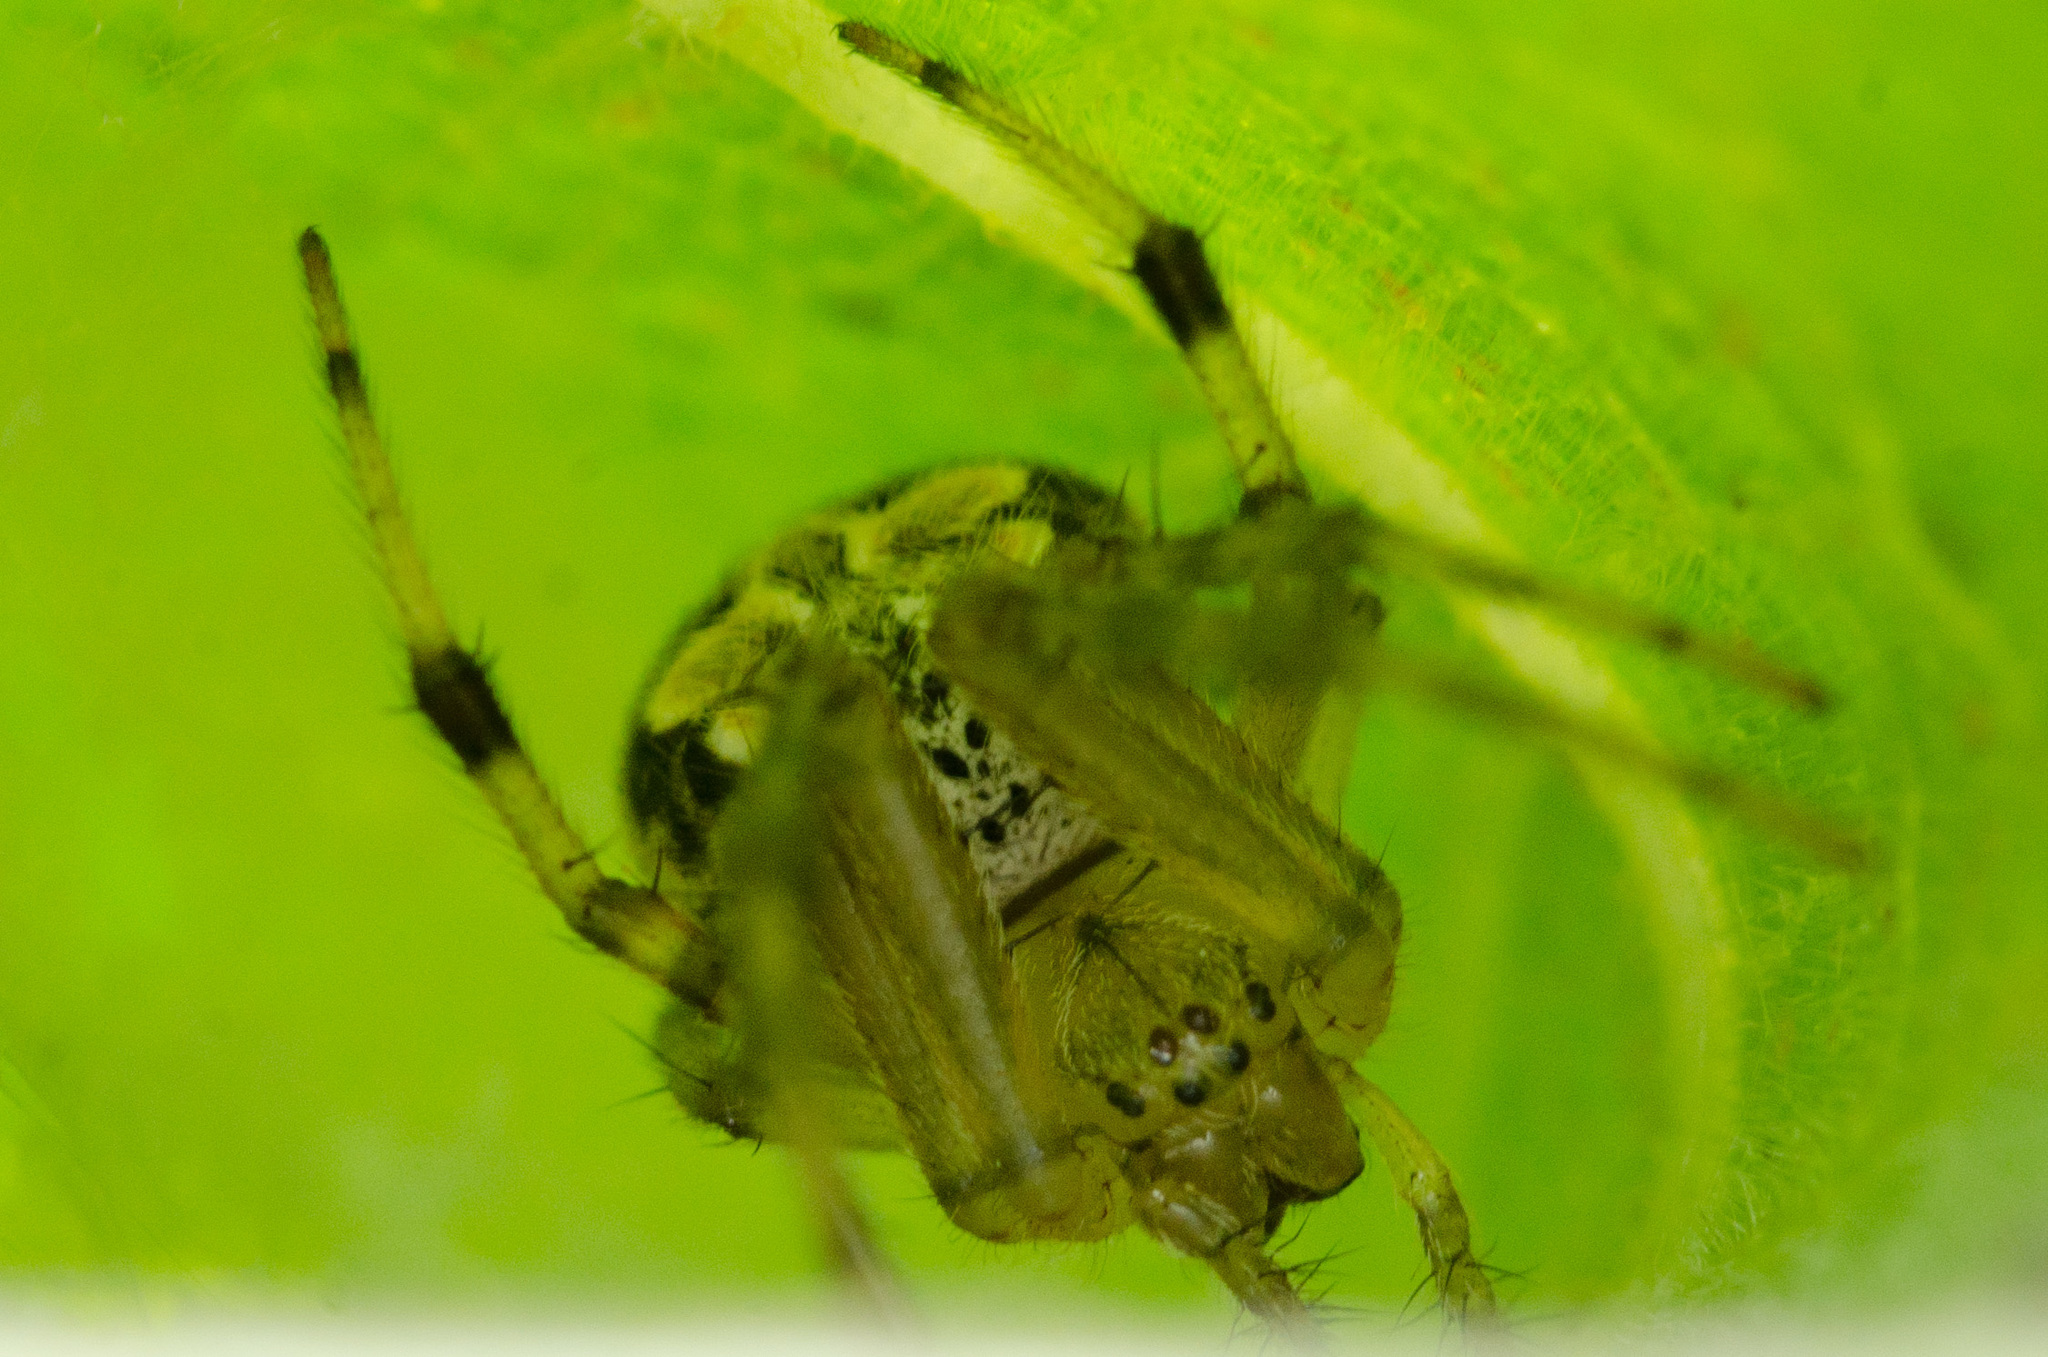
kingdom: Animalia
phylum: Arthropoda
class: Arachnida
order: Araneae
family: Araneidae
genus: Araneus
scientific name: Araneus pegnia
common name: Orb weavers
